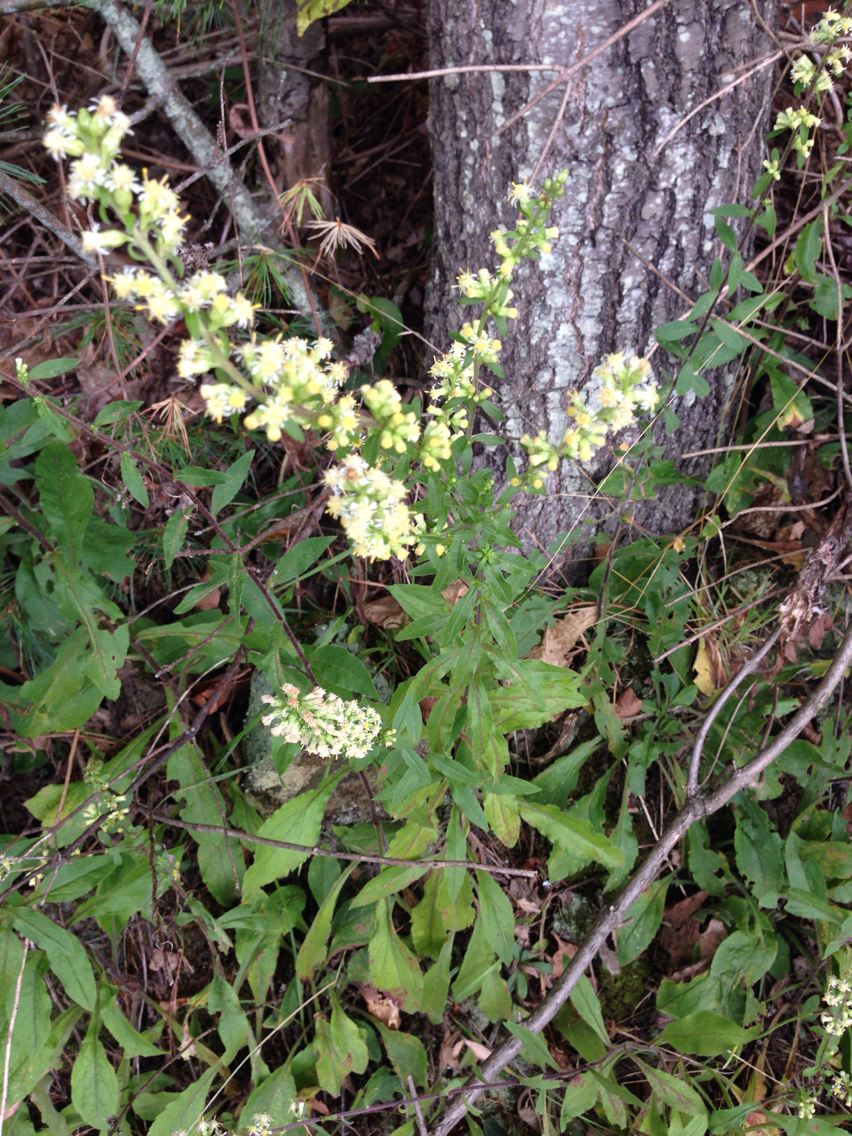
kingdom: Plantae
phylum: Tracheophyta
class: Magnoliopsida
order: Asterales
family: Asteraceae
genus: Solidago
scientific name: Solidago bicolor
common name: Silverrod
